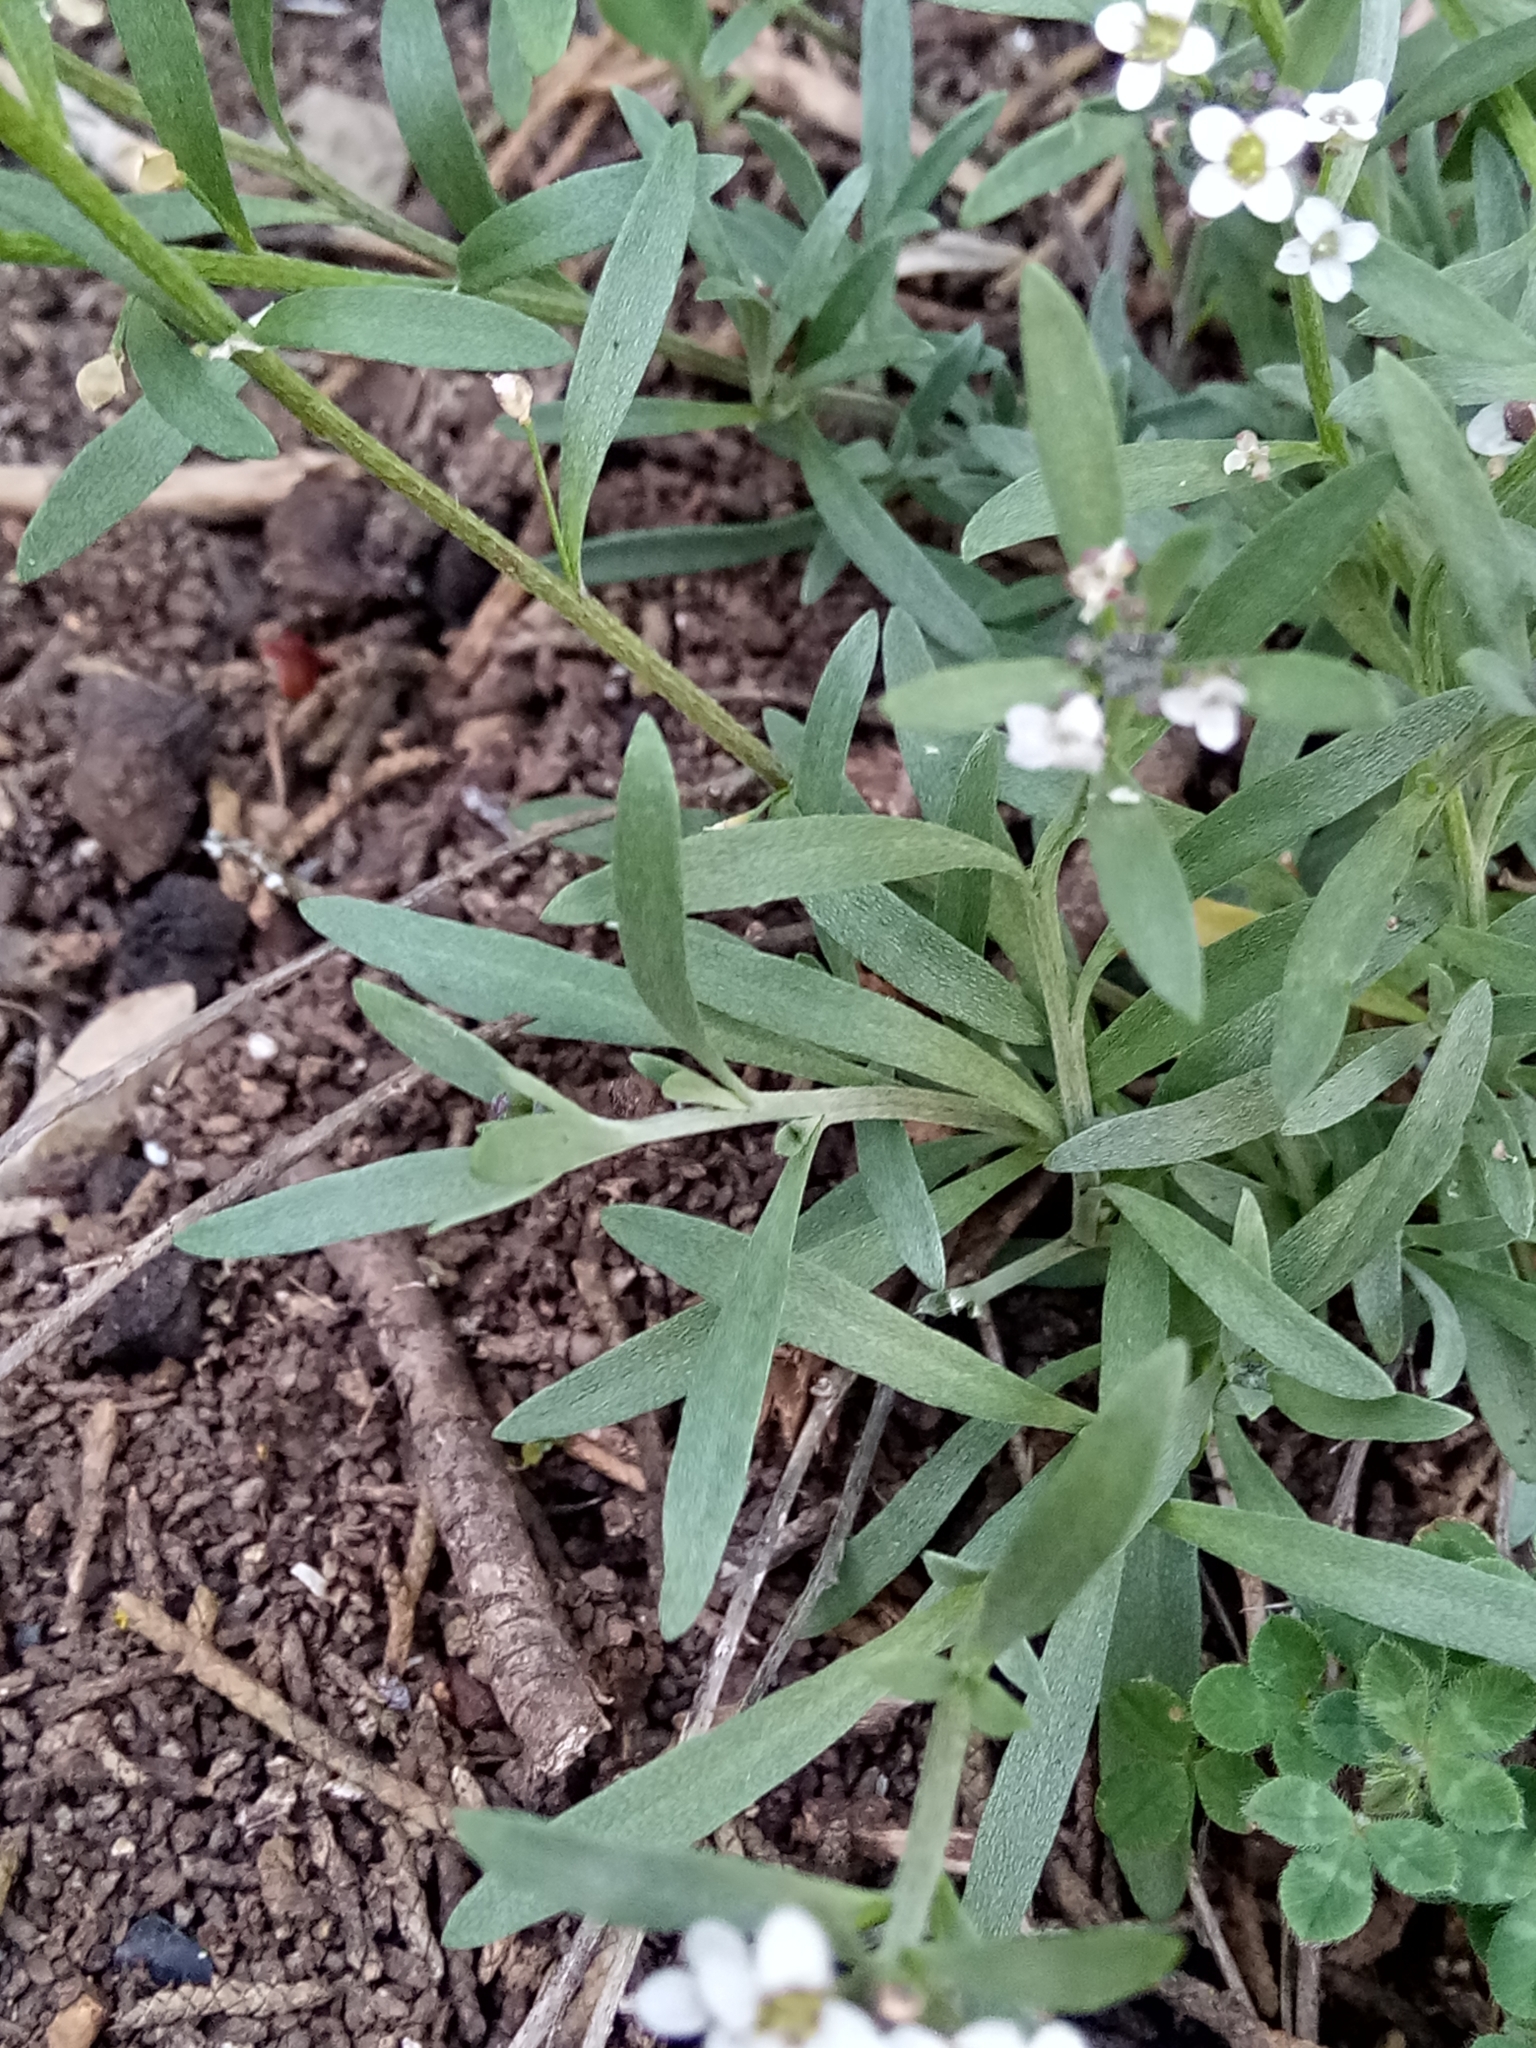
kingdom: Plantae
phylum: Tracheophyta
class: Magnoliopsida
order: Brassicales
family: Brassicaceae
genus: Lobularia
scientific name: Lobularia maritima
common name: Sweet alison
